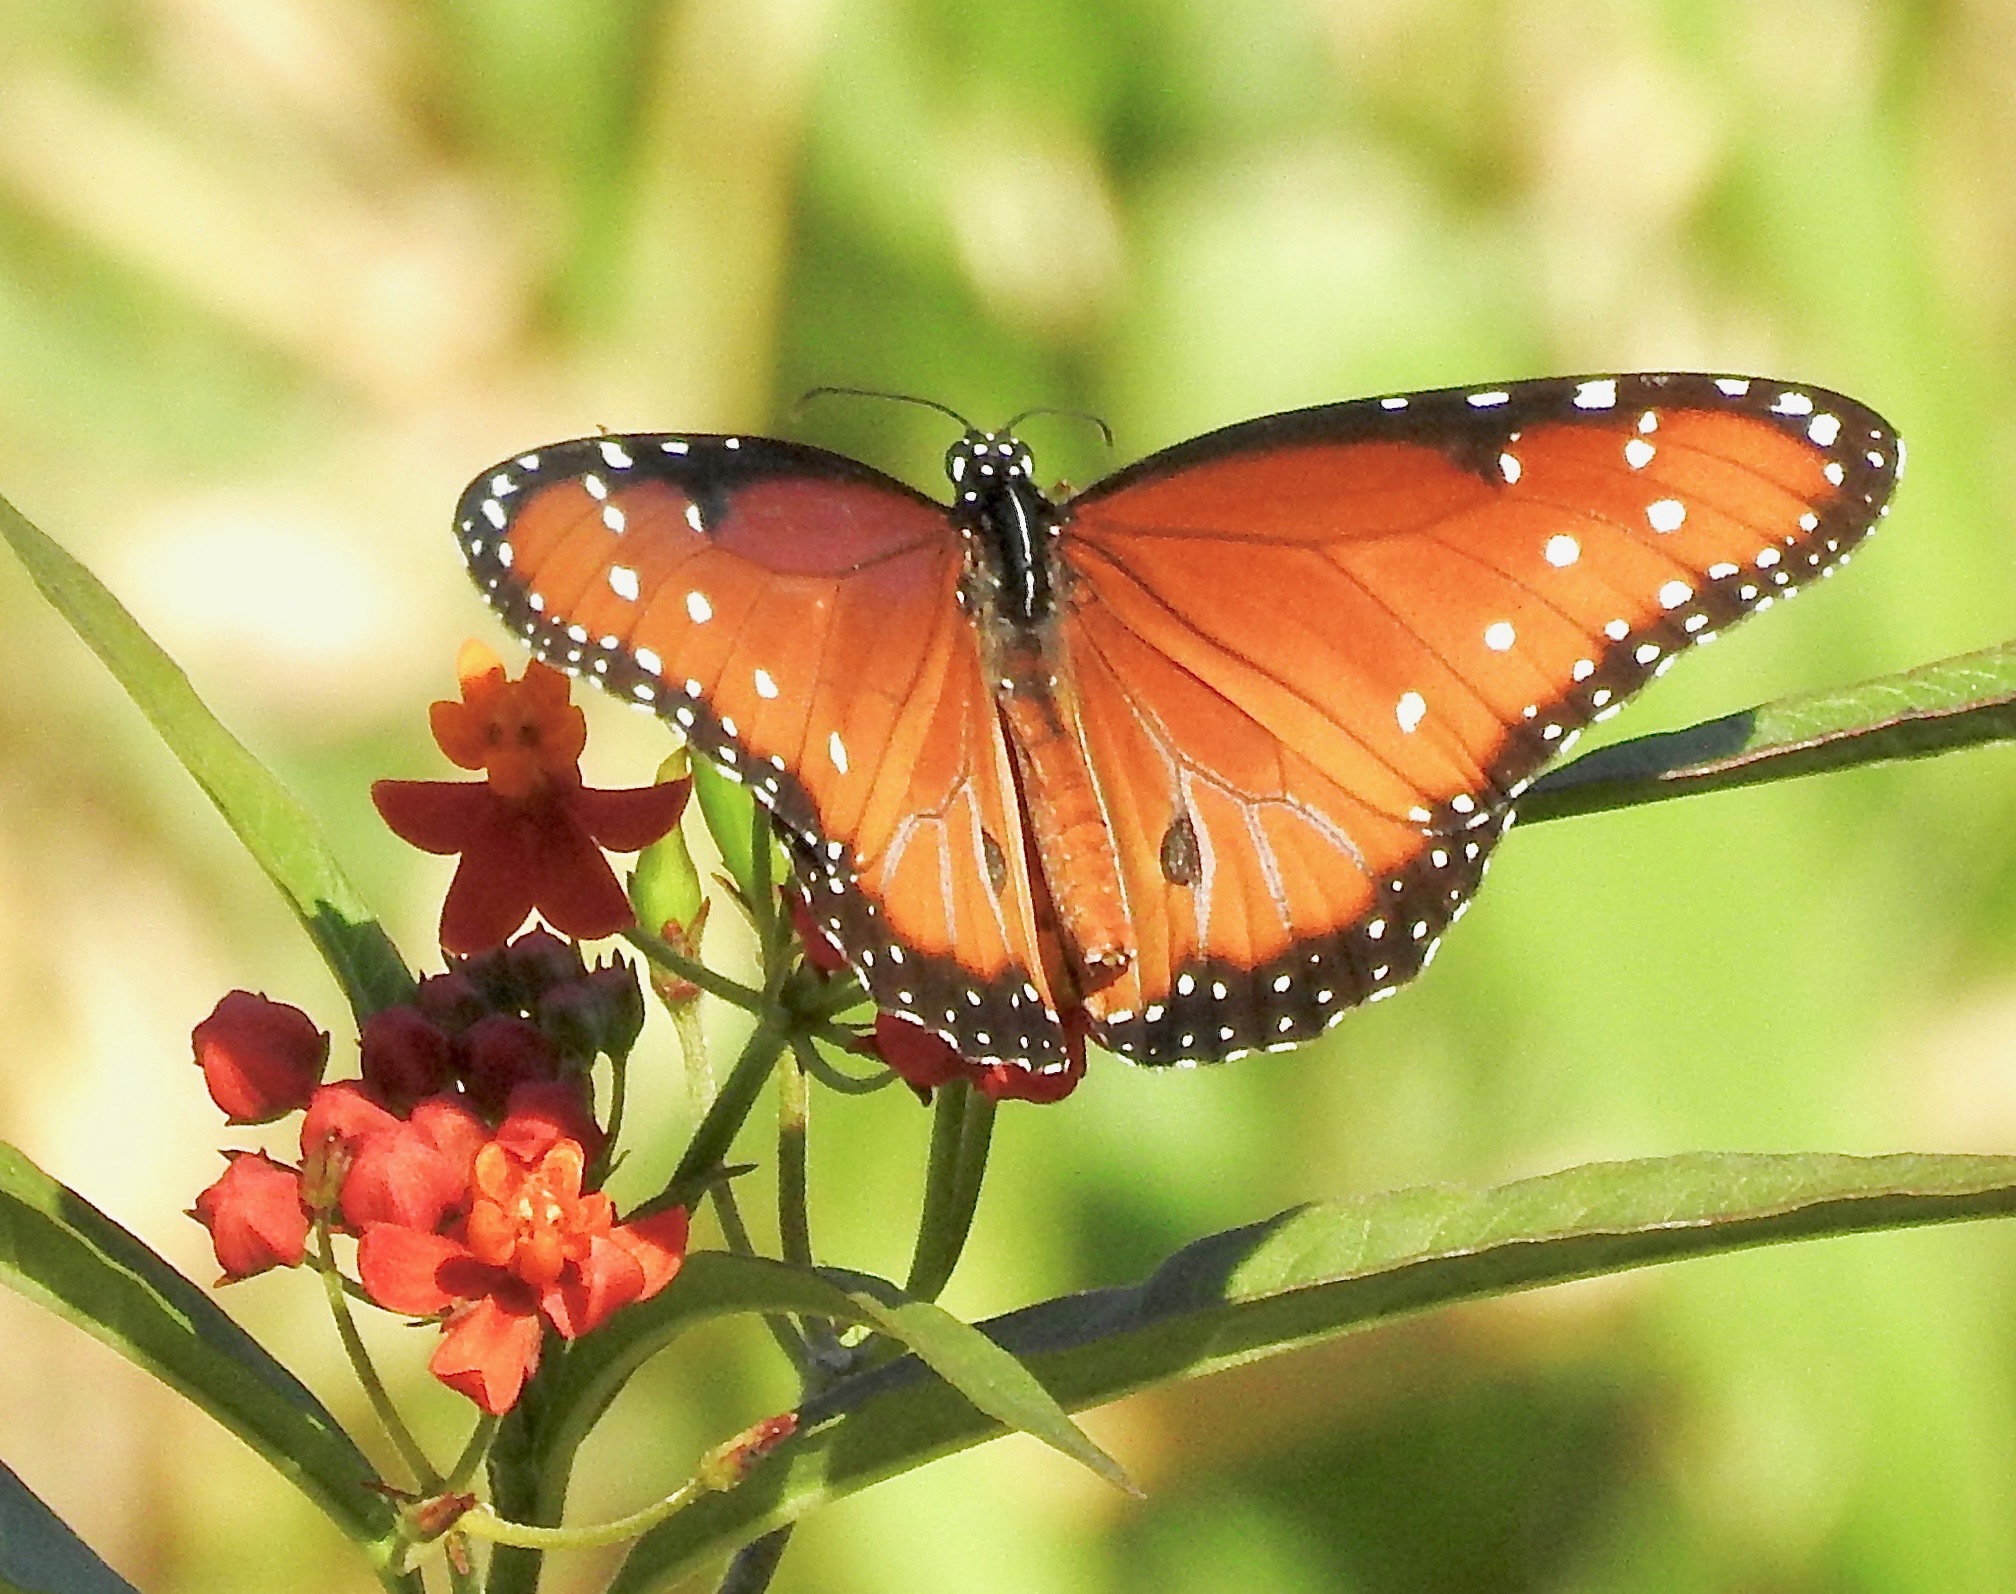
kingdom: Animalia
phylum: Arthropoda
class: Insecta
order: Lepidoptera
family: Nymphalidae
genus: Danaus
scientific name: Danaus gilippus
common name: Queen
